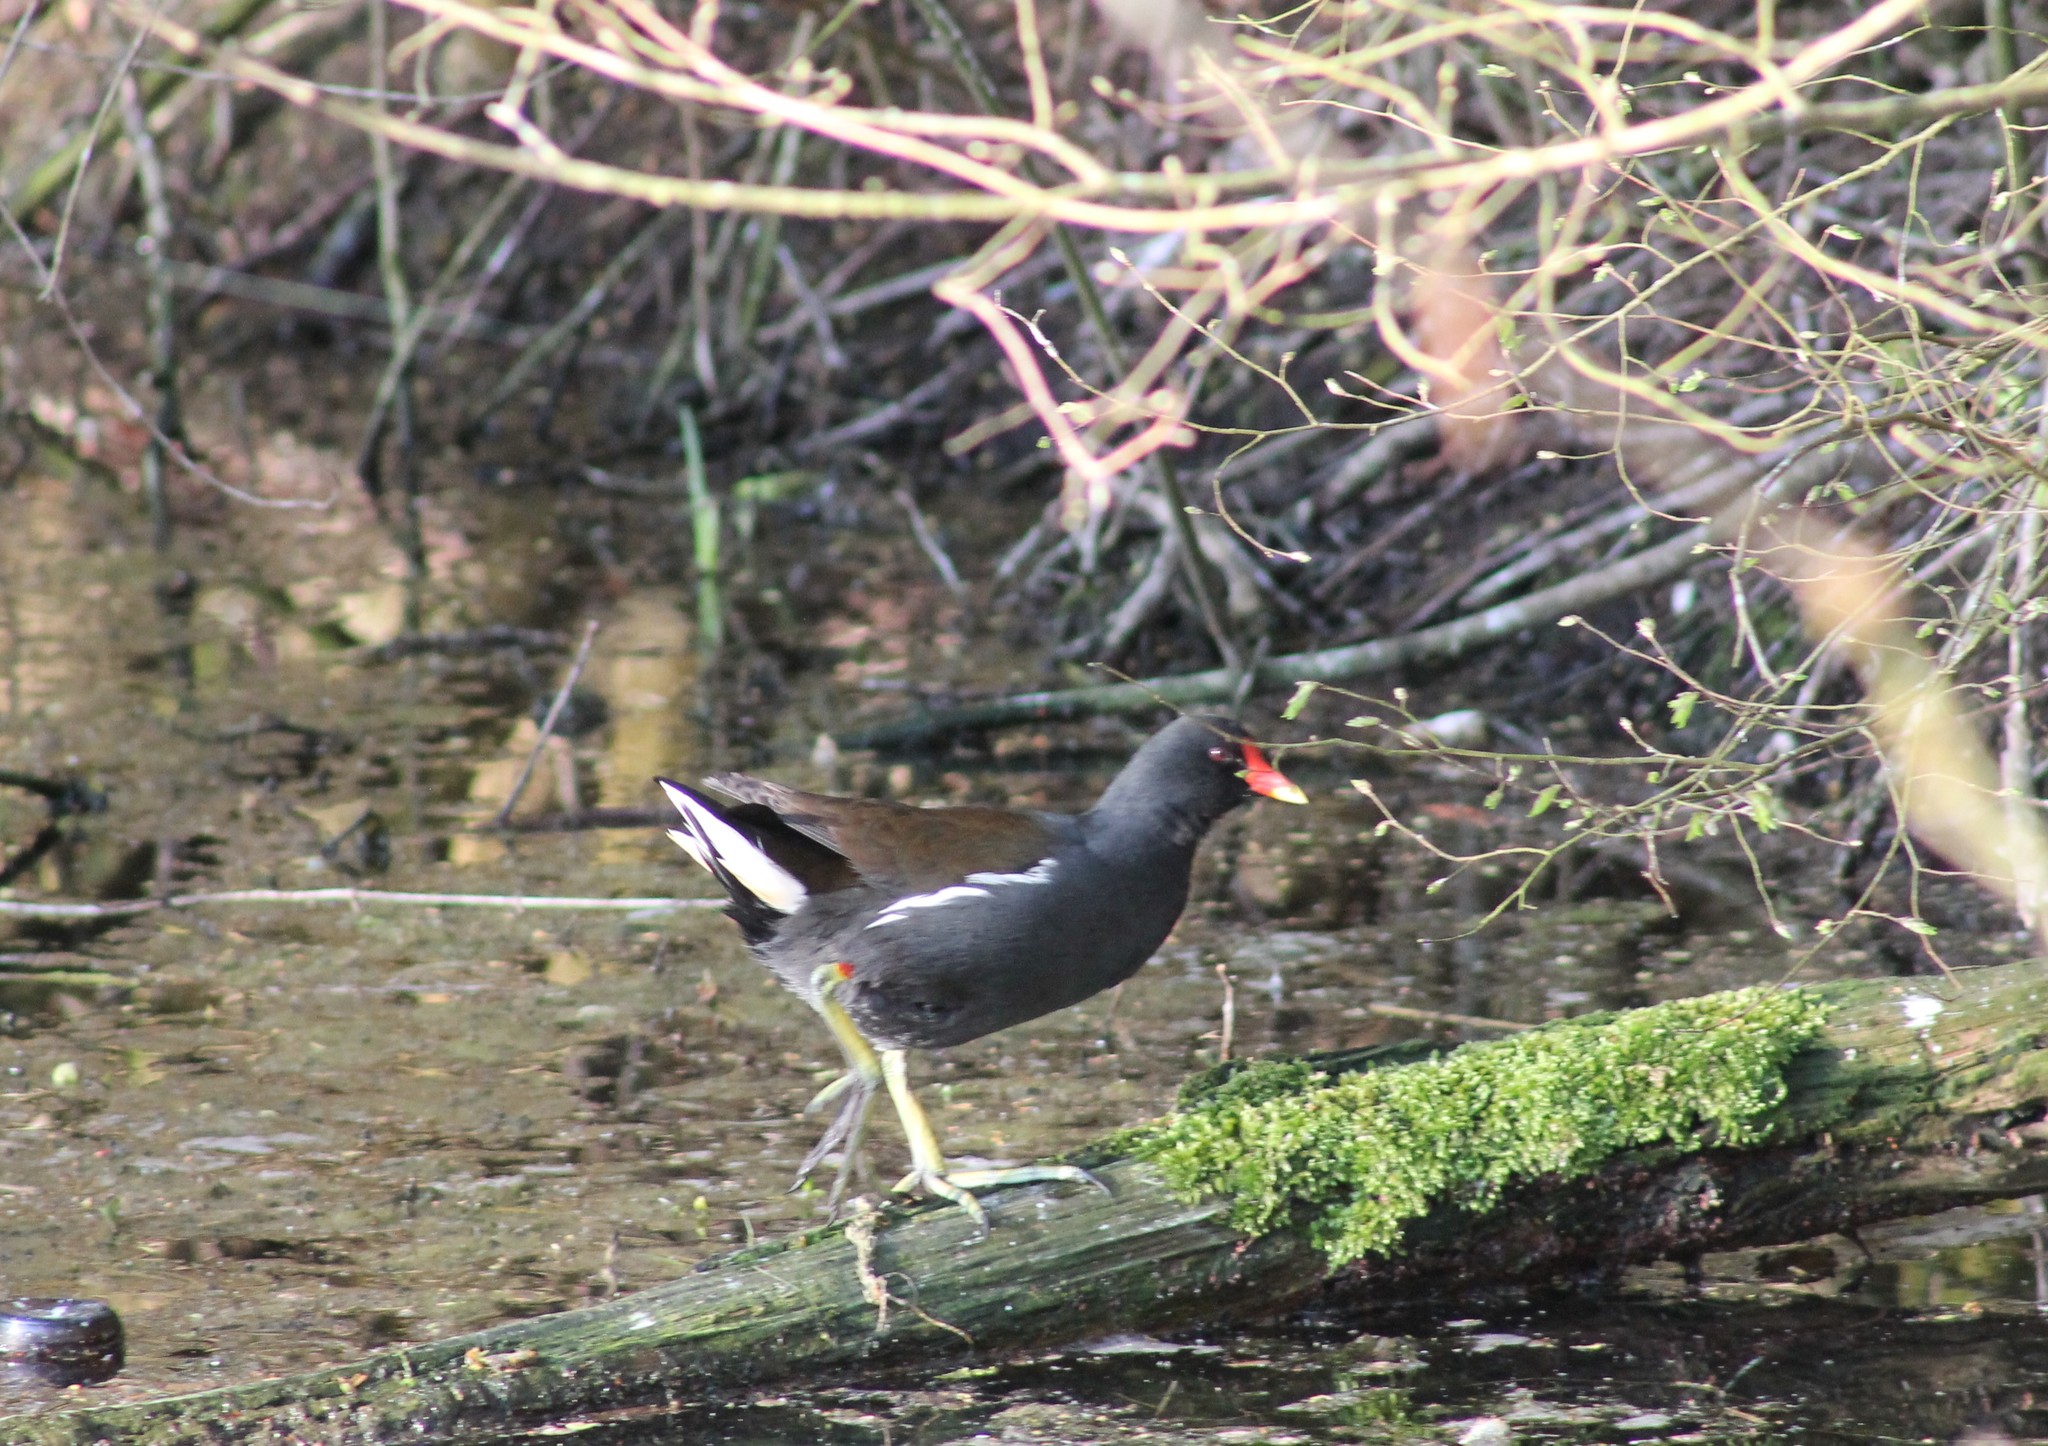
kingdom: Animalia
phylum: Chordata
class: Aves
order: Gruiformes
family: Rallidae
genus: Gallinula
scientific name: Gallinula chloropus
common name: Common moorhen
